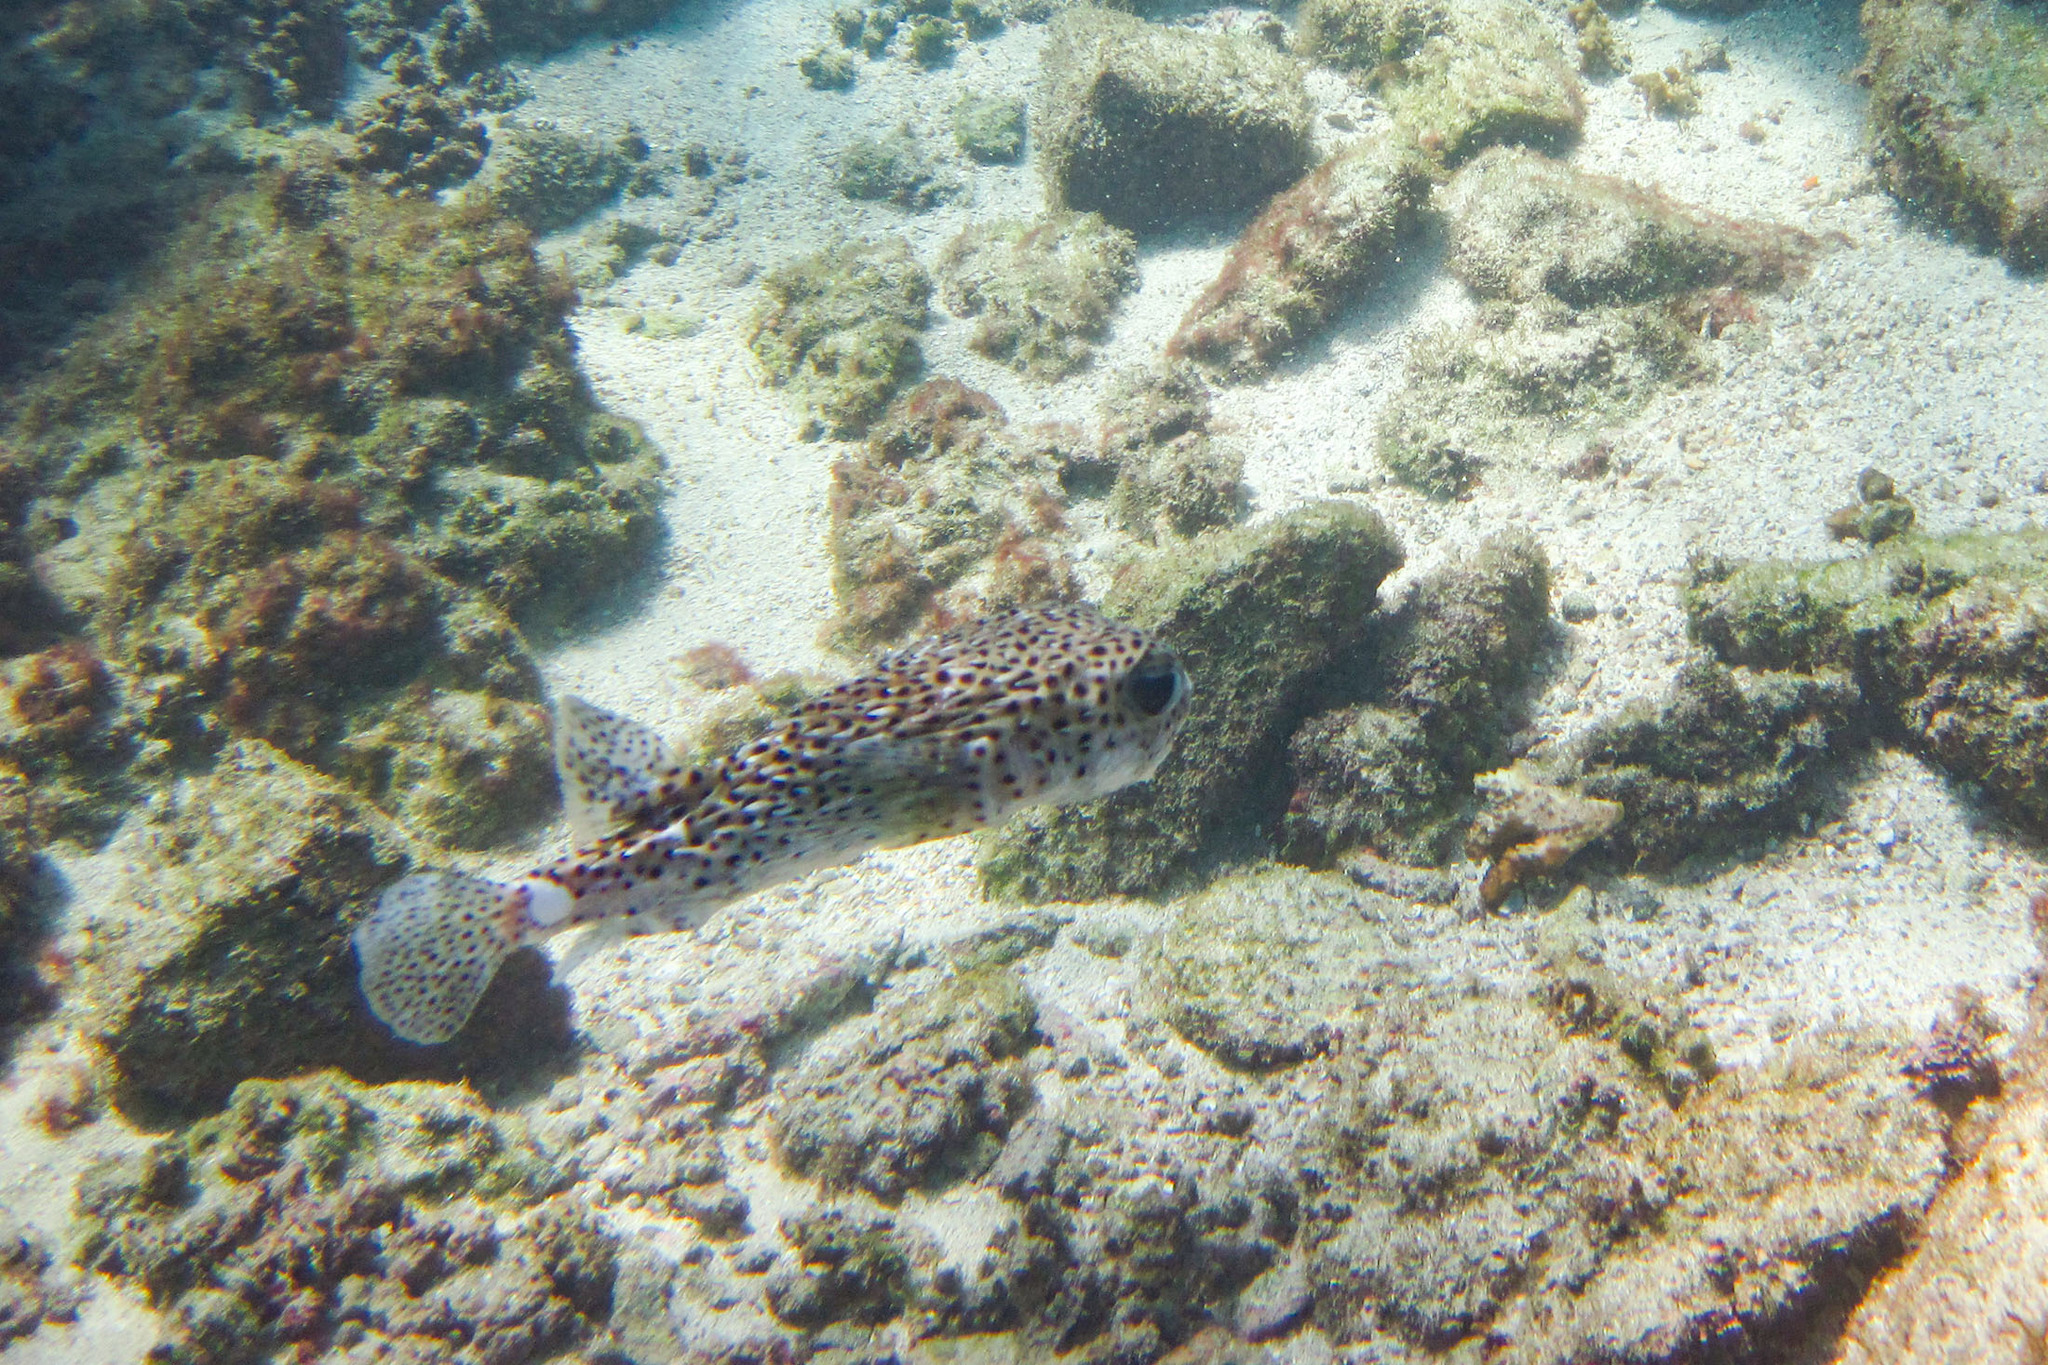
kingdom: Animalia
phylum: Chordata
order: Tetraodontiformes
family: Diodontidae
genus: Diodon
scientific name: Diodon hystrix
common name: Giant porcupinefish
